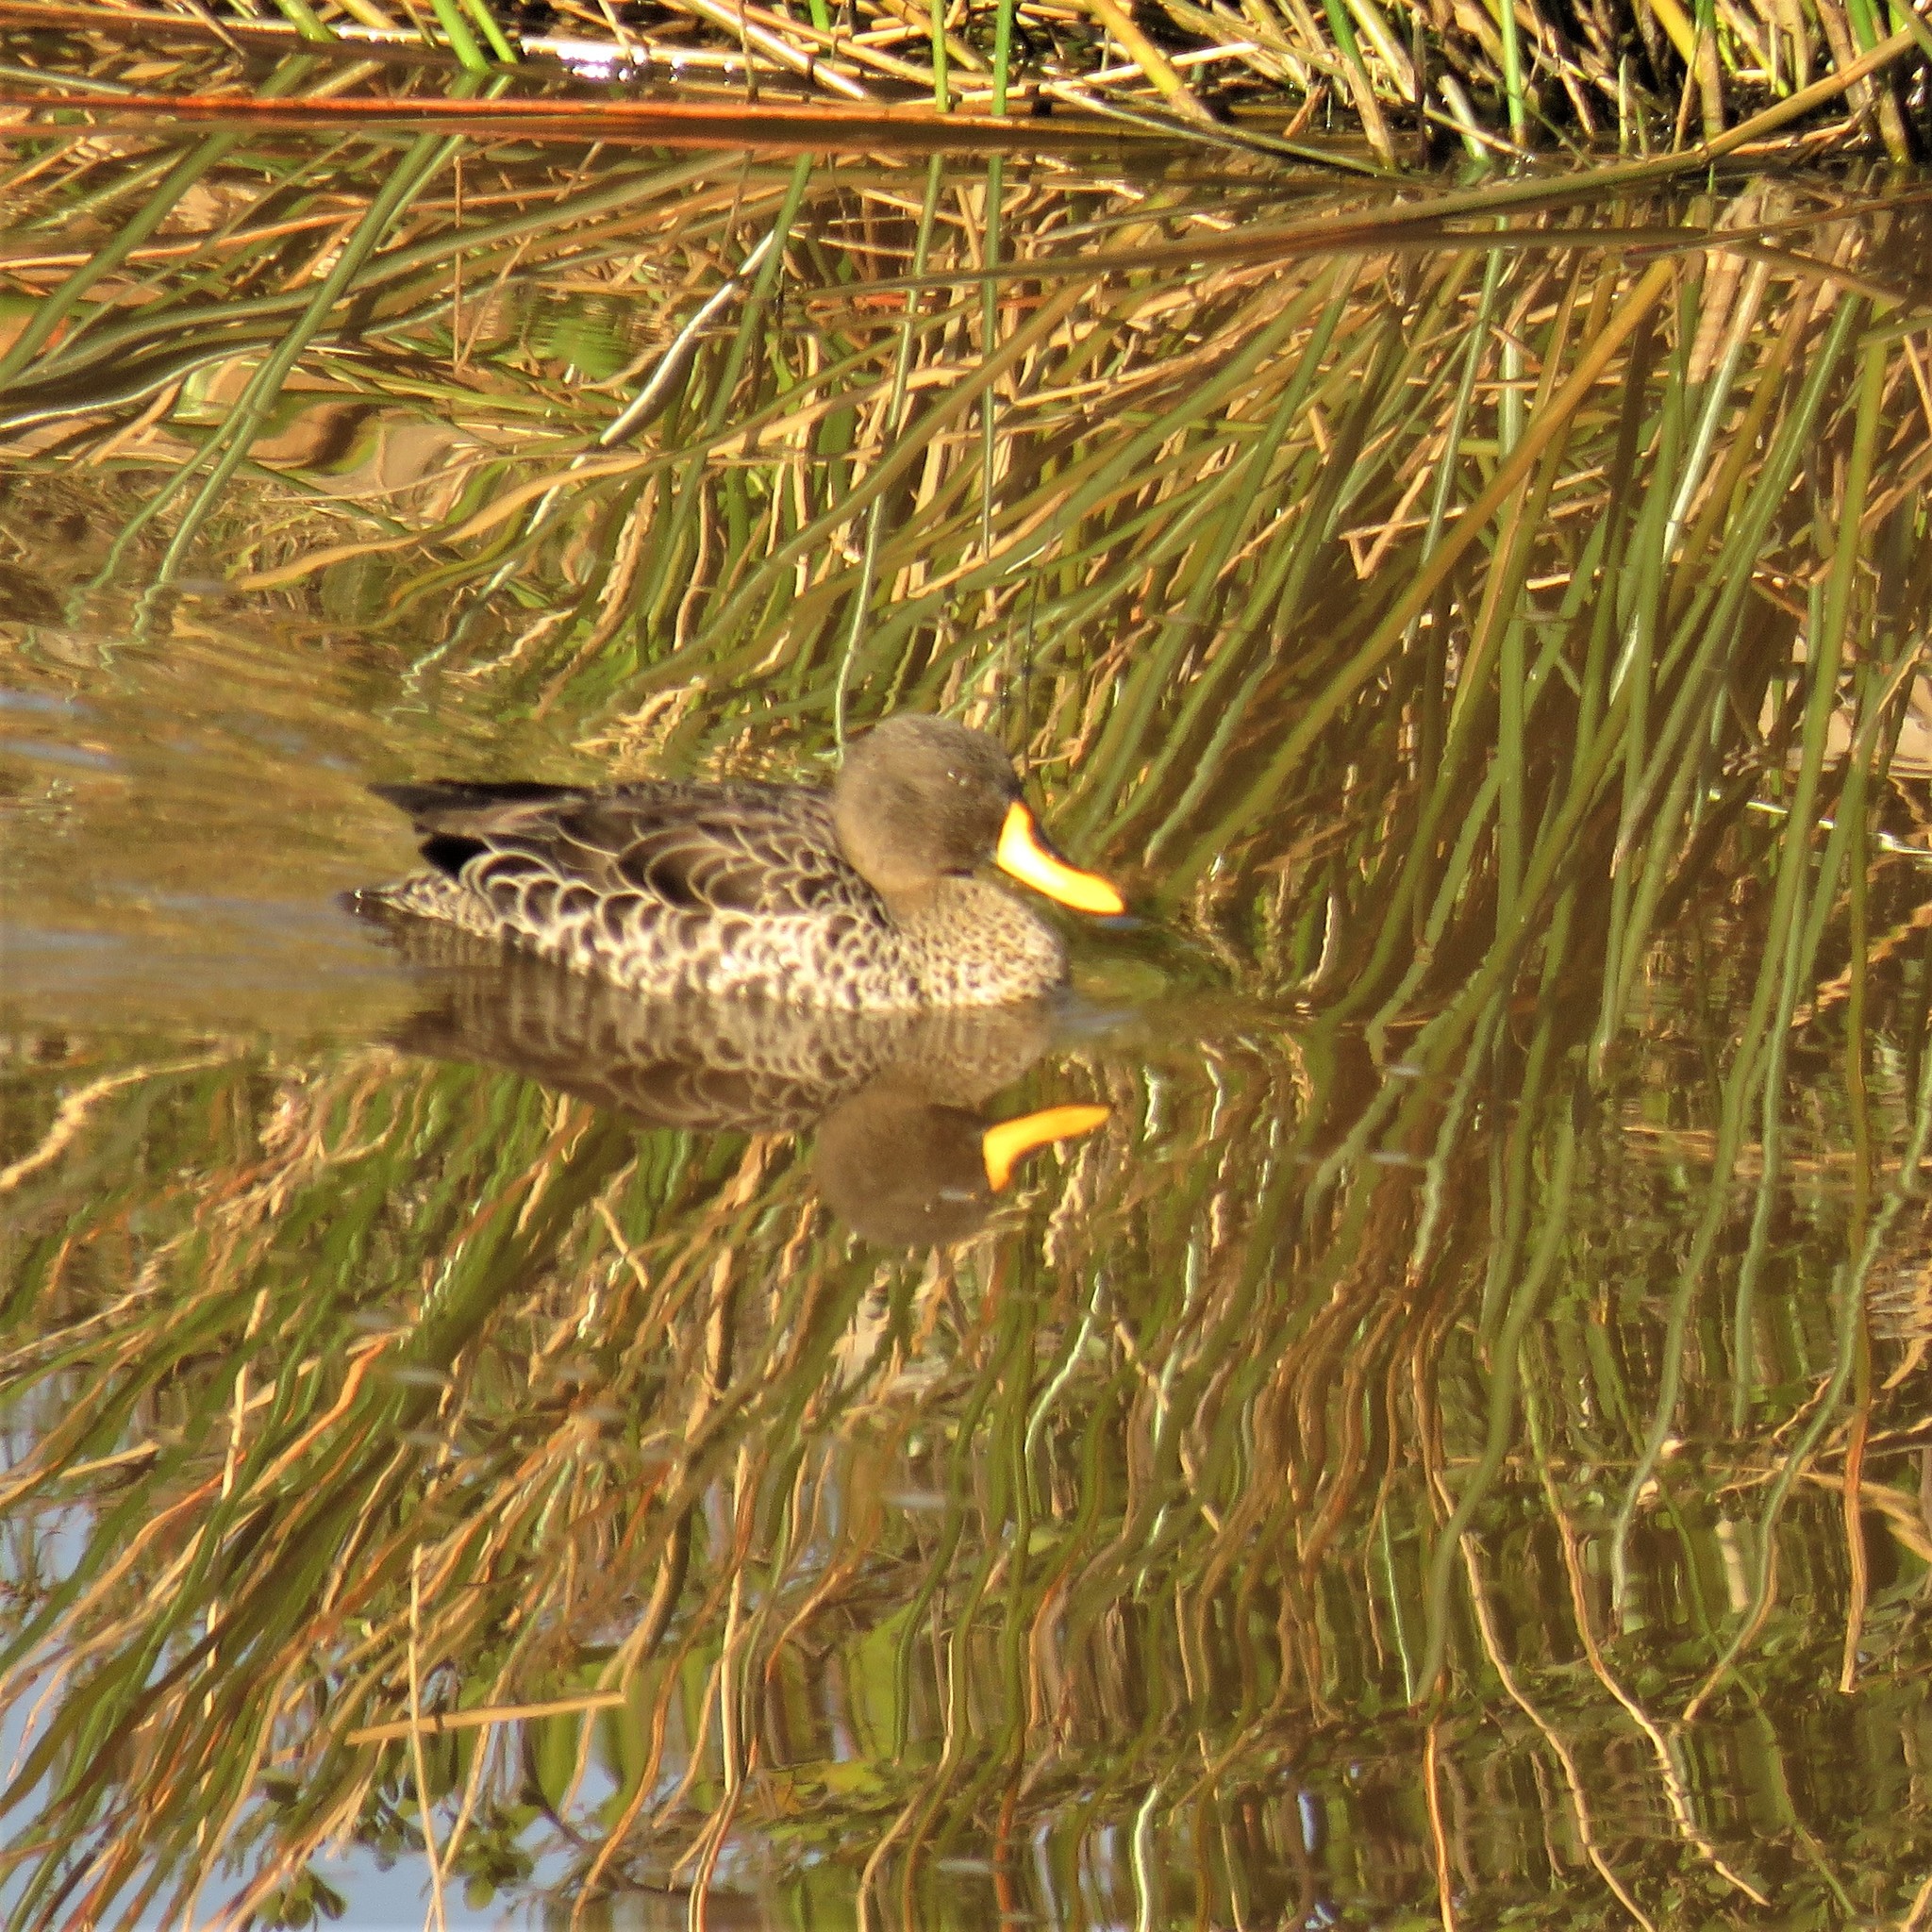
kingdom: Animalia
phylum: Chordata
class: Aves
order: Anseriformes
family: Anatidae
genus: Anas
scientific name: Anas undulata
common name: Yellow-billed duck
